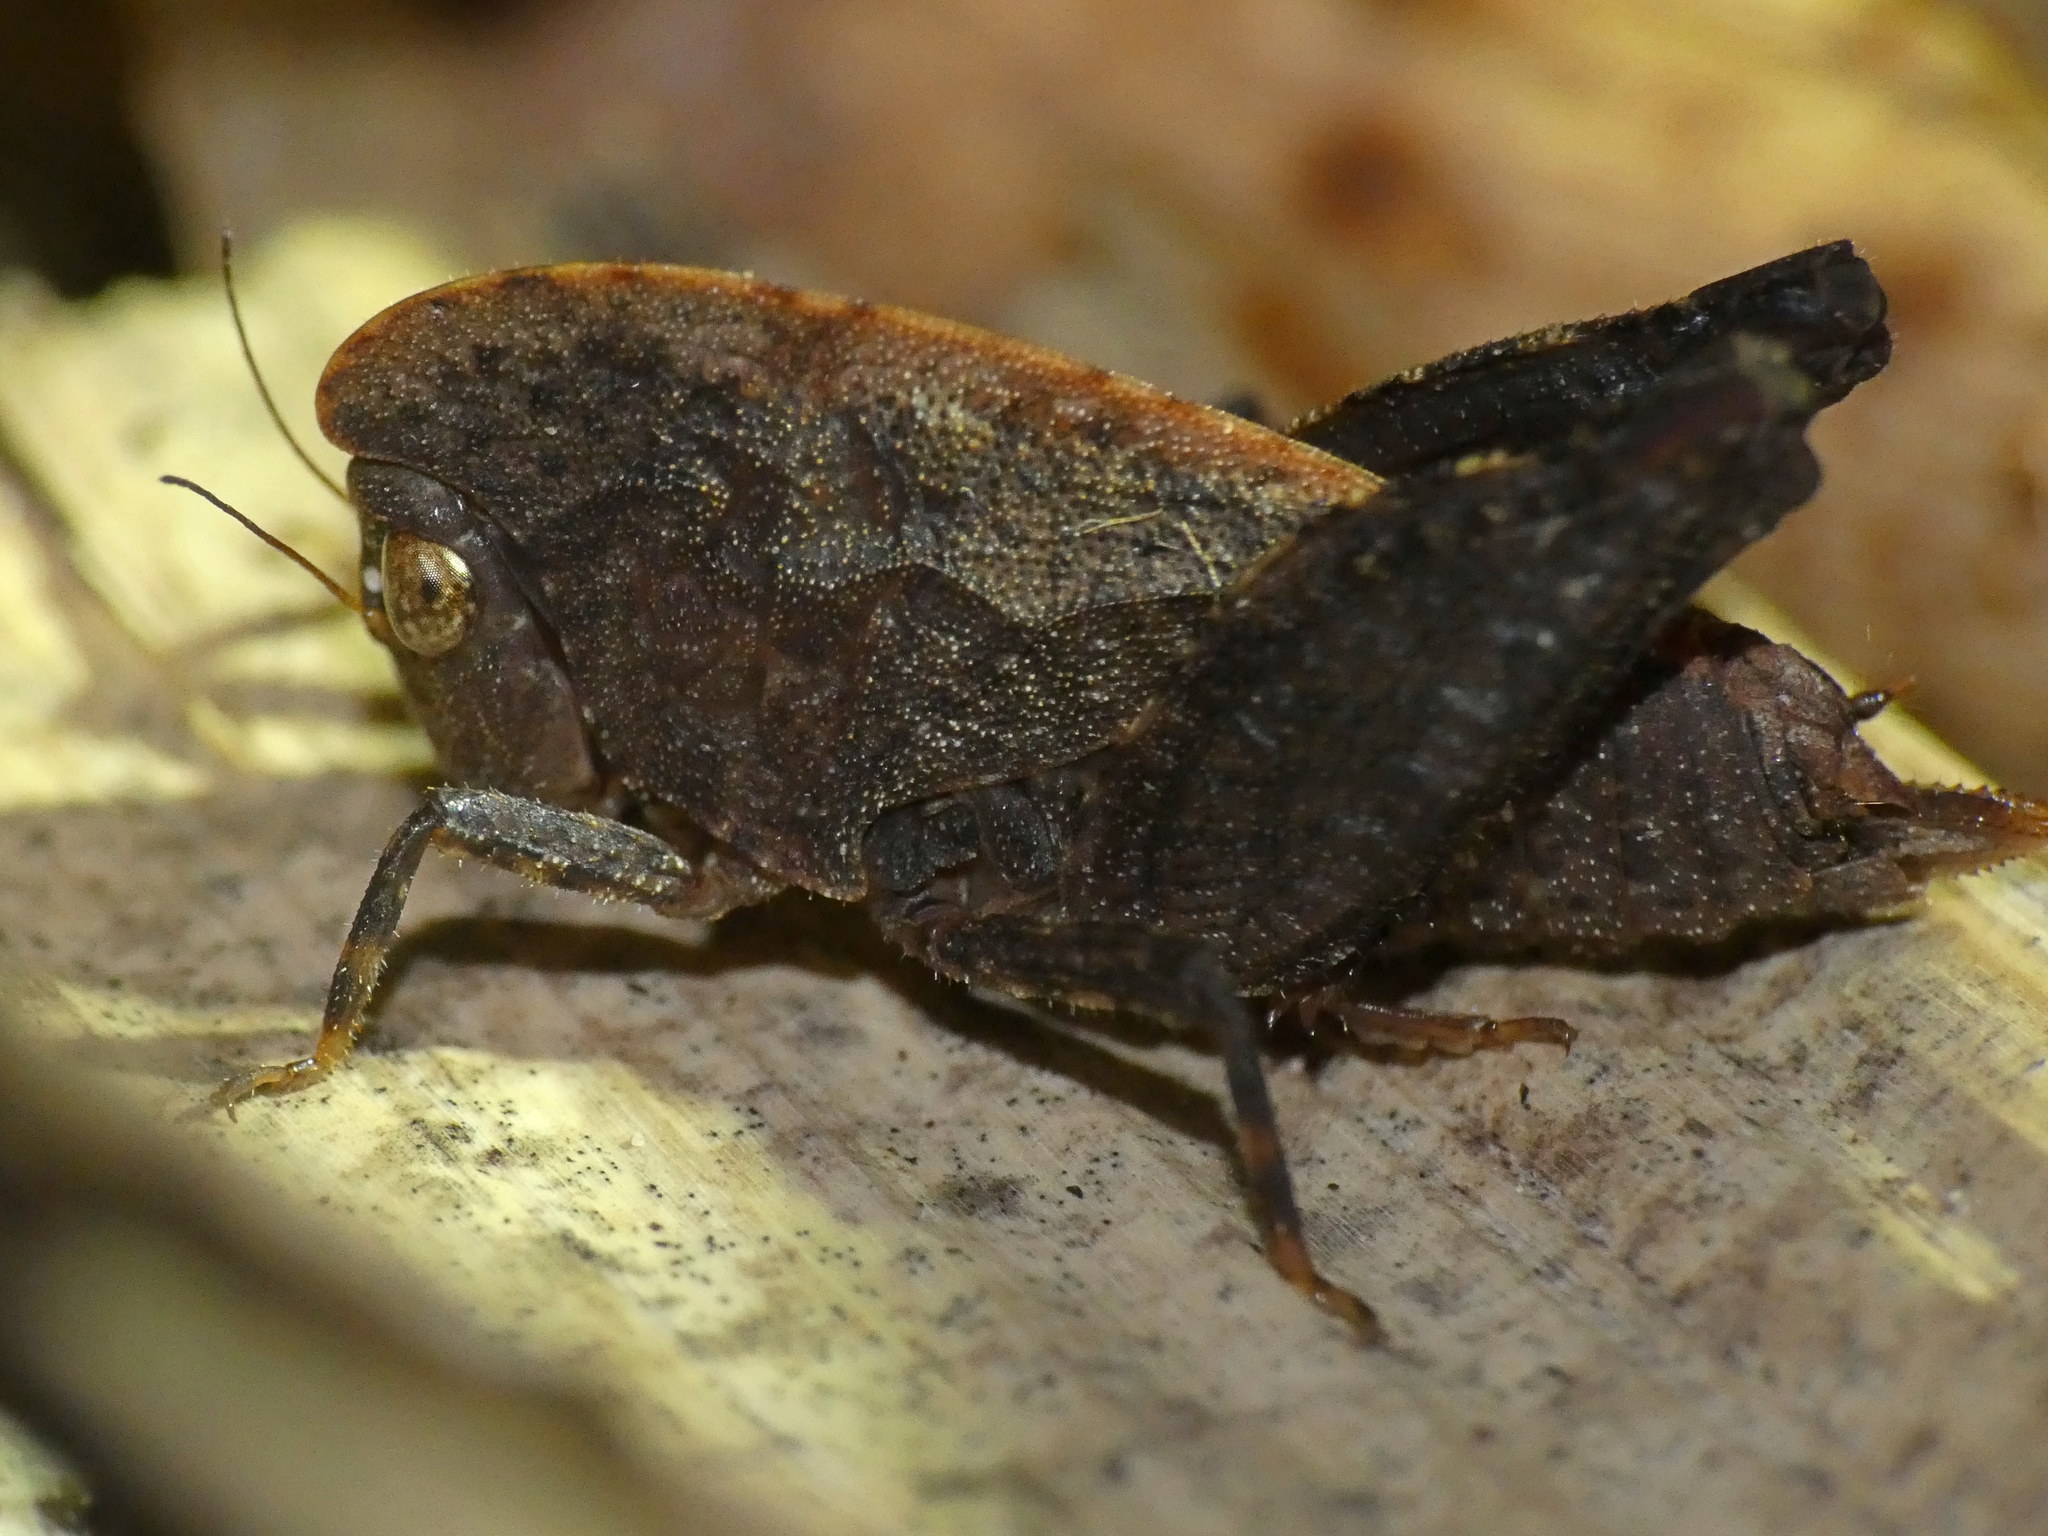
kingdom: Animalia
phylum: Arthropoda
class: Insecta
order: Orthoptera
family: Tetrigidae
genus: Selivinga
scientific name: Selivinga tribulata
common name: Tribulation helmed groundhopper
